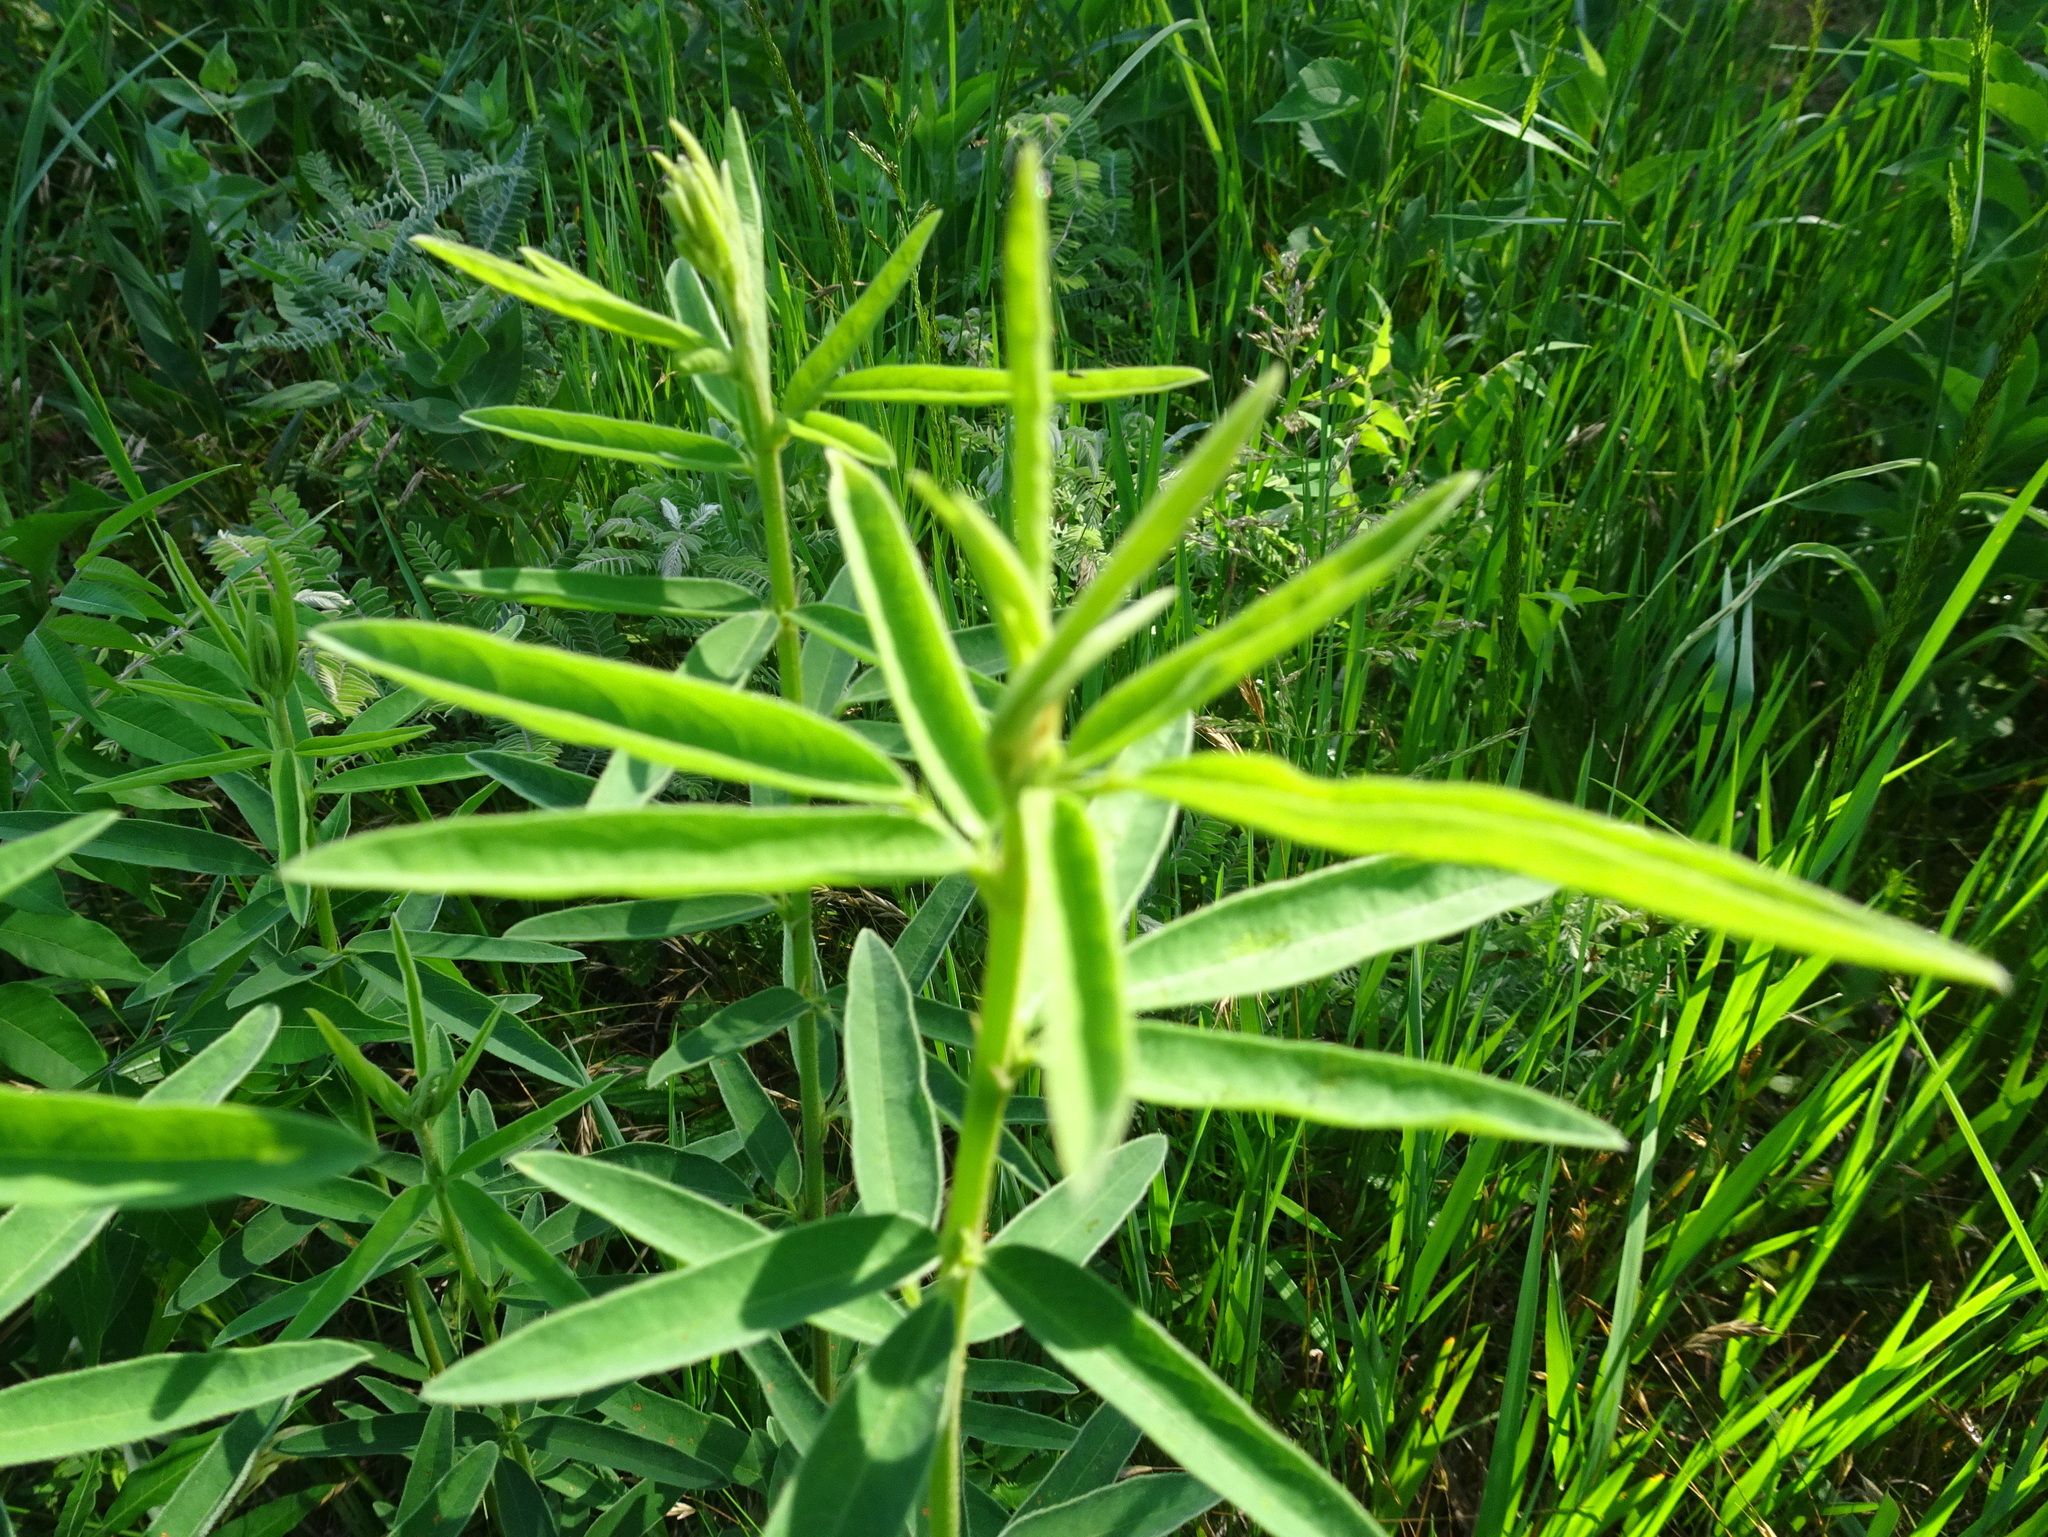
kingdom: Plantae
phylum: Tracheophyta
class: Magnoliopsida
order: Fabales
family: Fabaceae
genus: Desmodium
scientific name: Desmodium sessilifolium
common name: Sessile tick-clover
